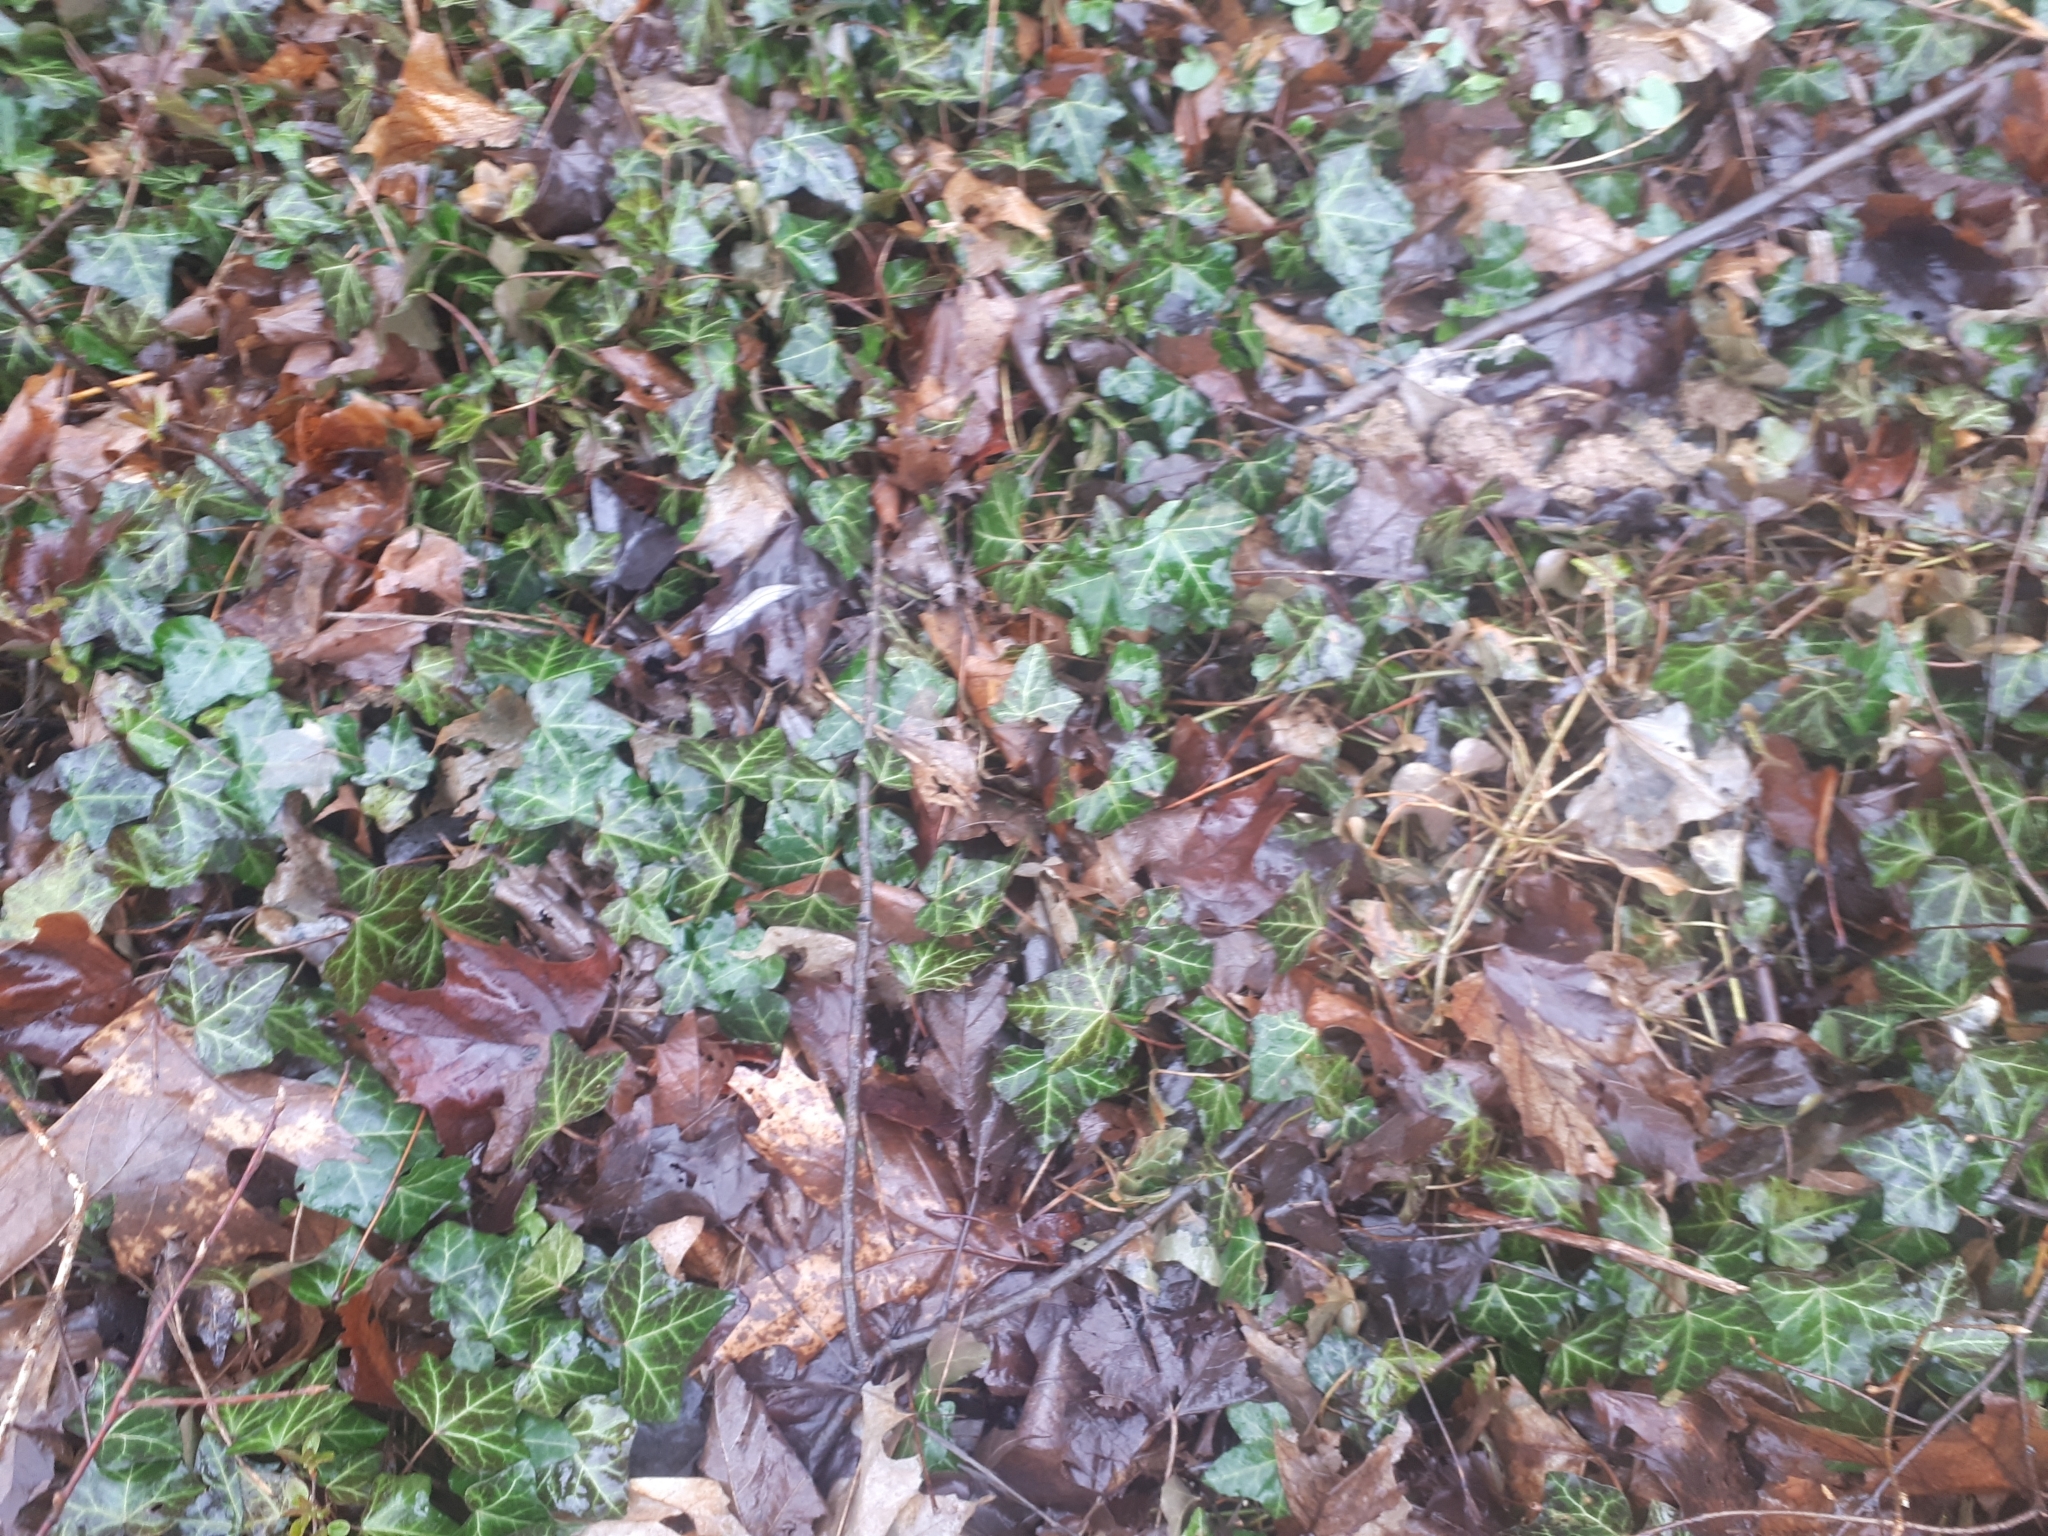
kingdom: Plantae
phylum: Tracheophyta
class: Magnoliopsida
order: Apiales
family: Araliaceae
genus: Hedera
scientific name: Hedera helix
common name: Ivy
